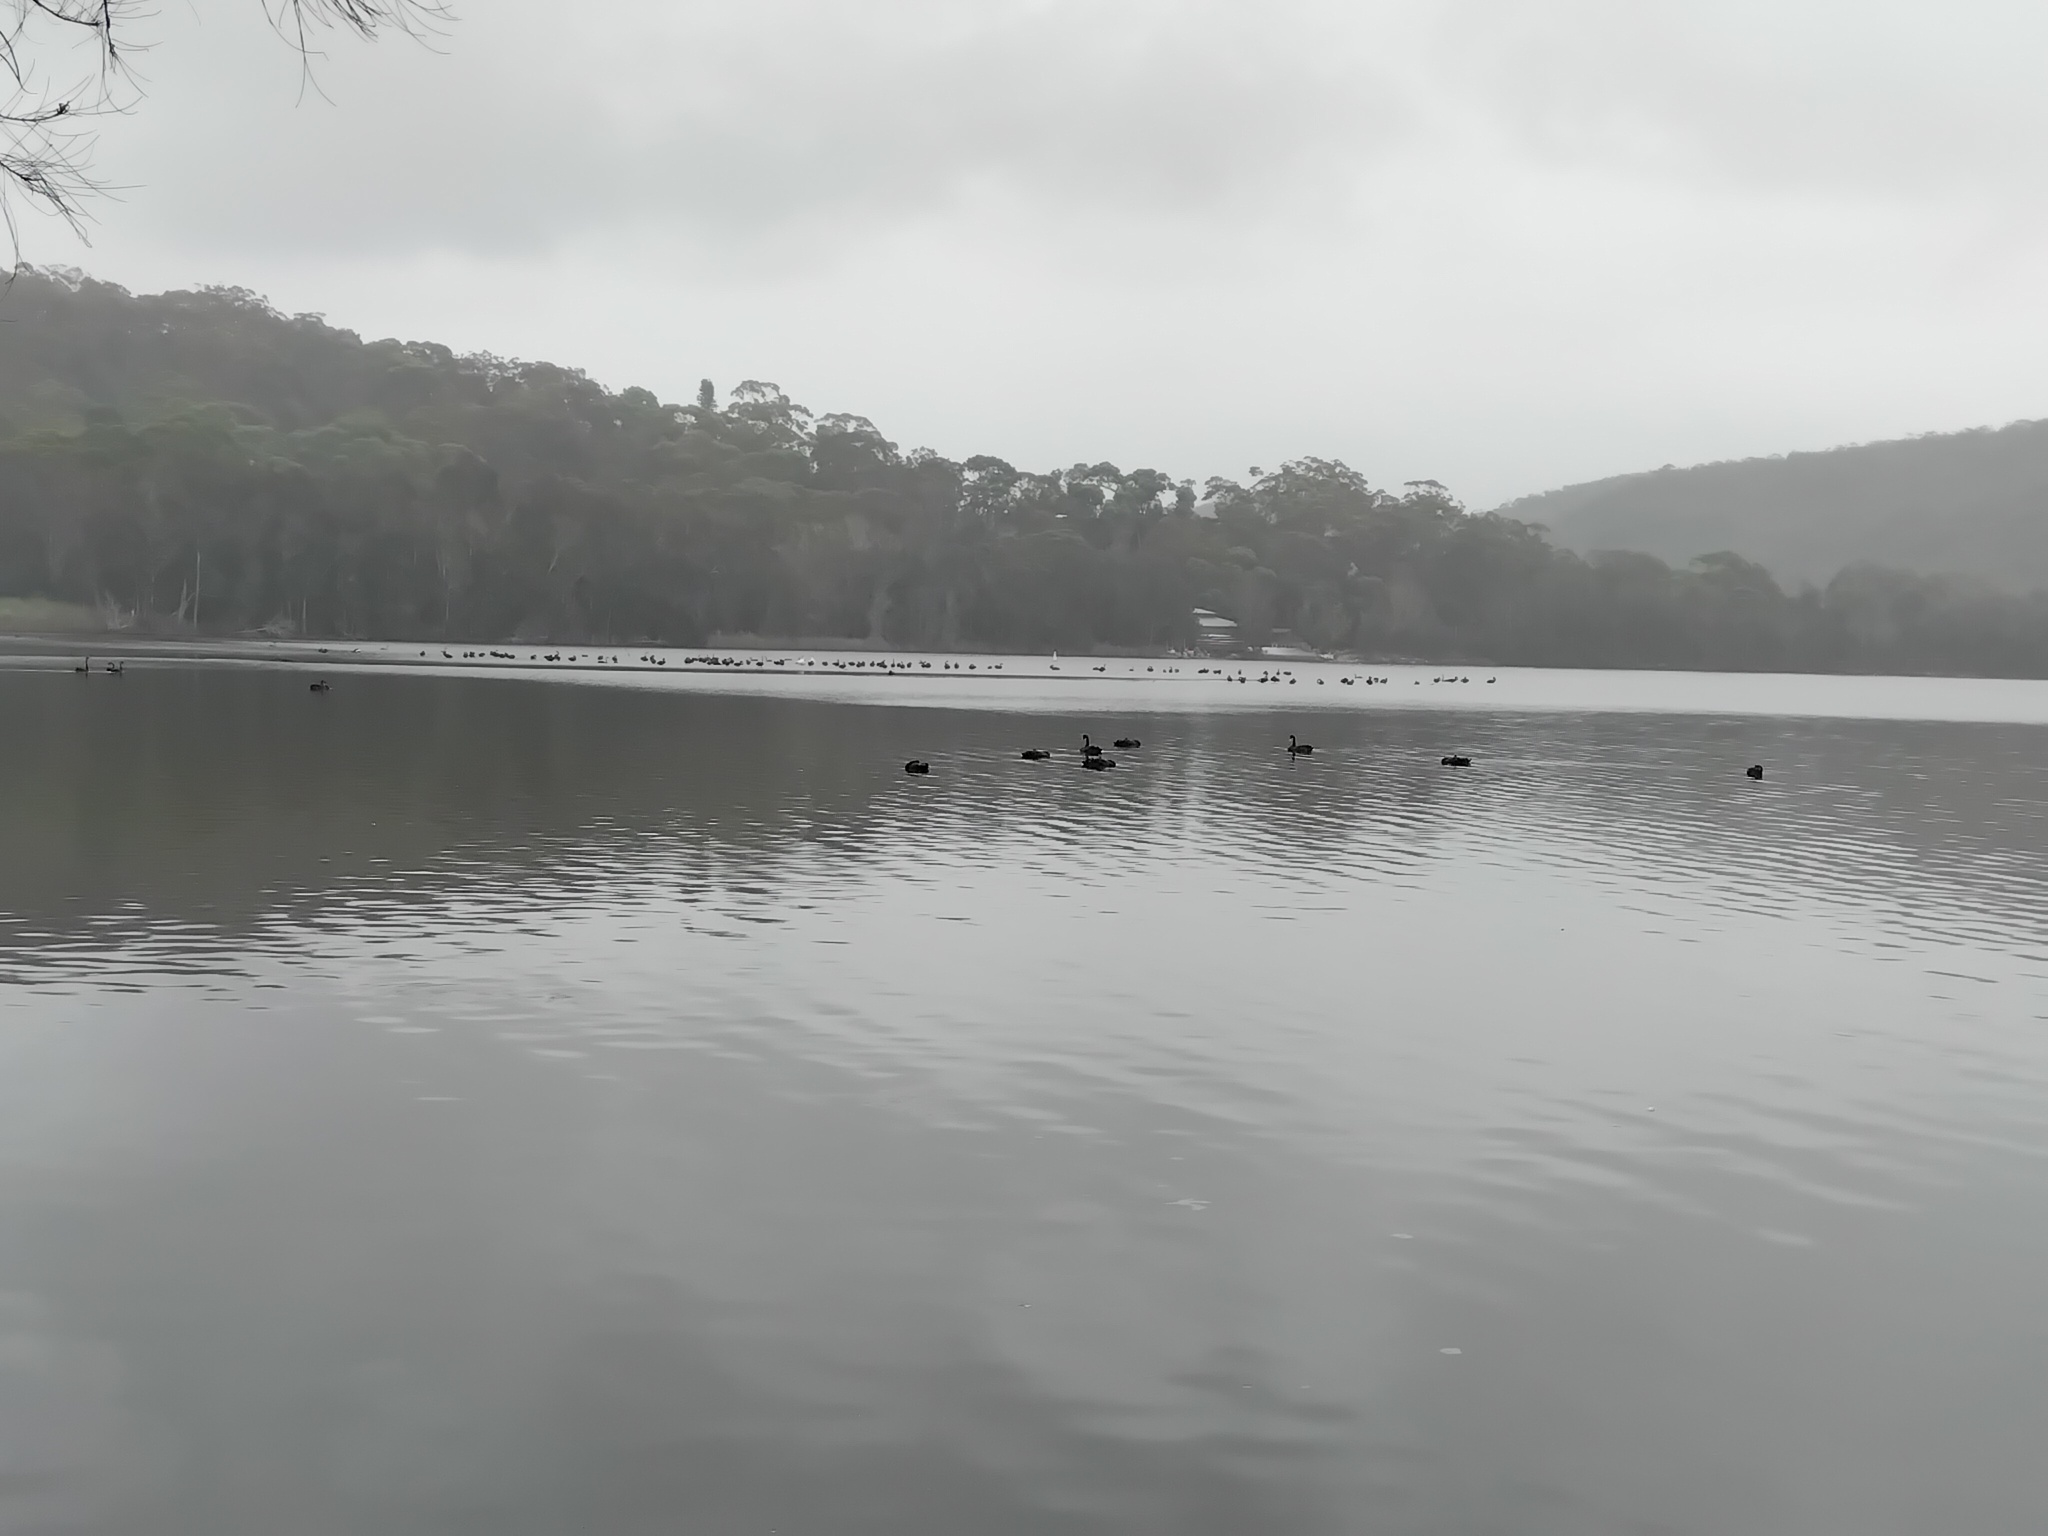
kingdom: Animalia
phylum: Chordata
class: Aves
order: Anseriformes
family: Anatidae
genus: Cygnus
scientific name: Cygnus atratus
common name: Black swan
